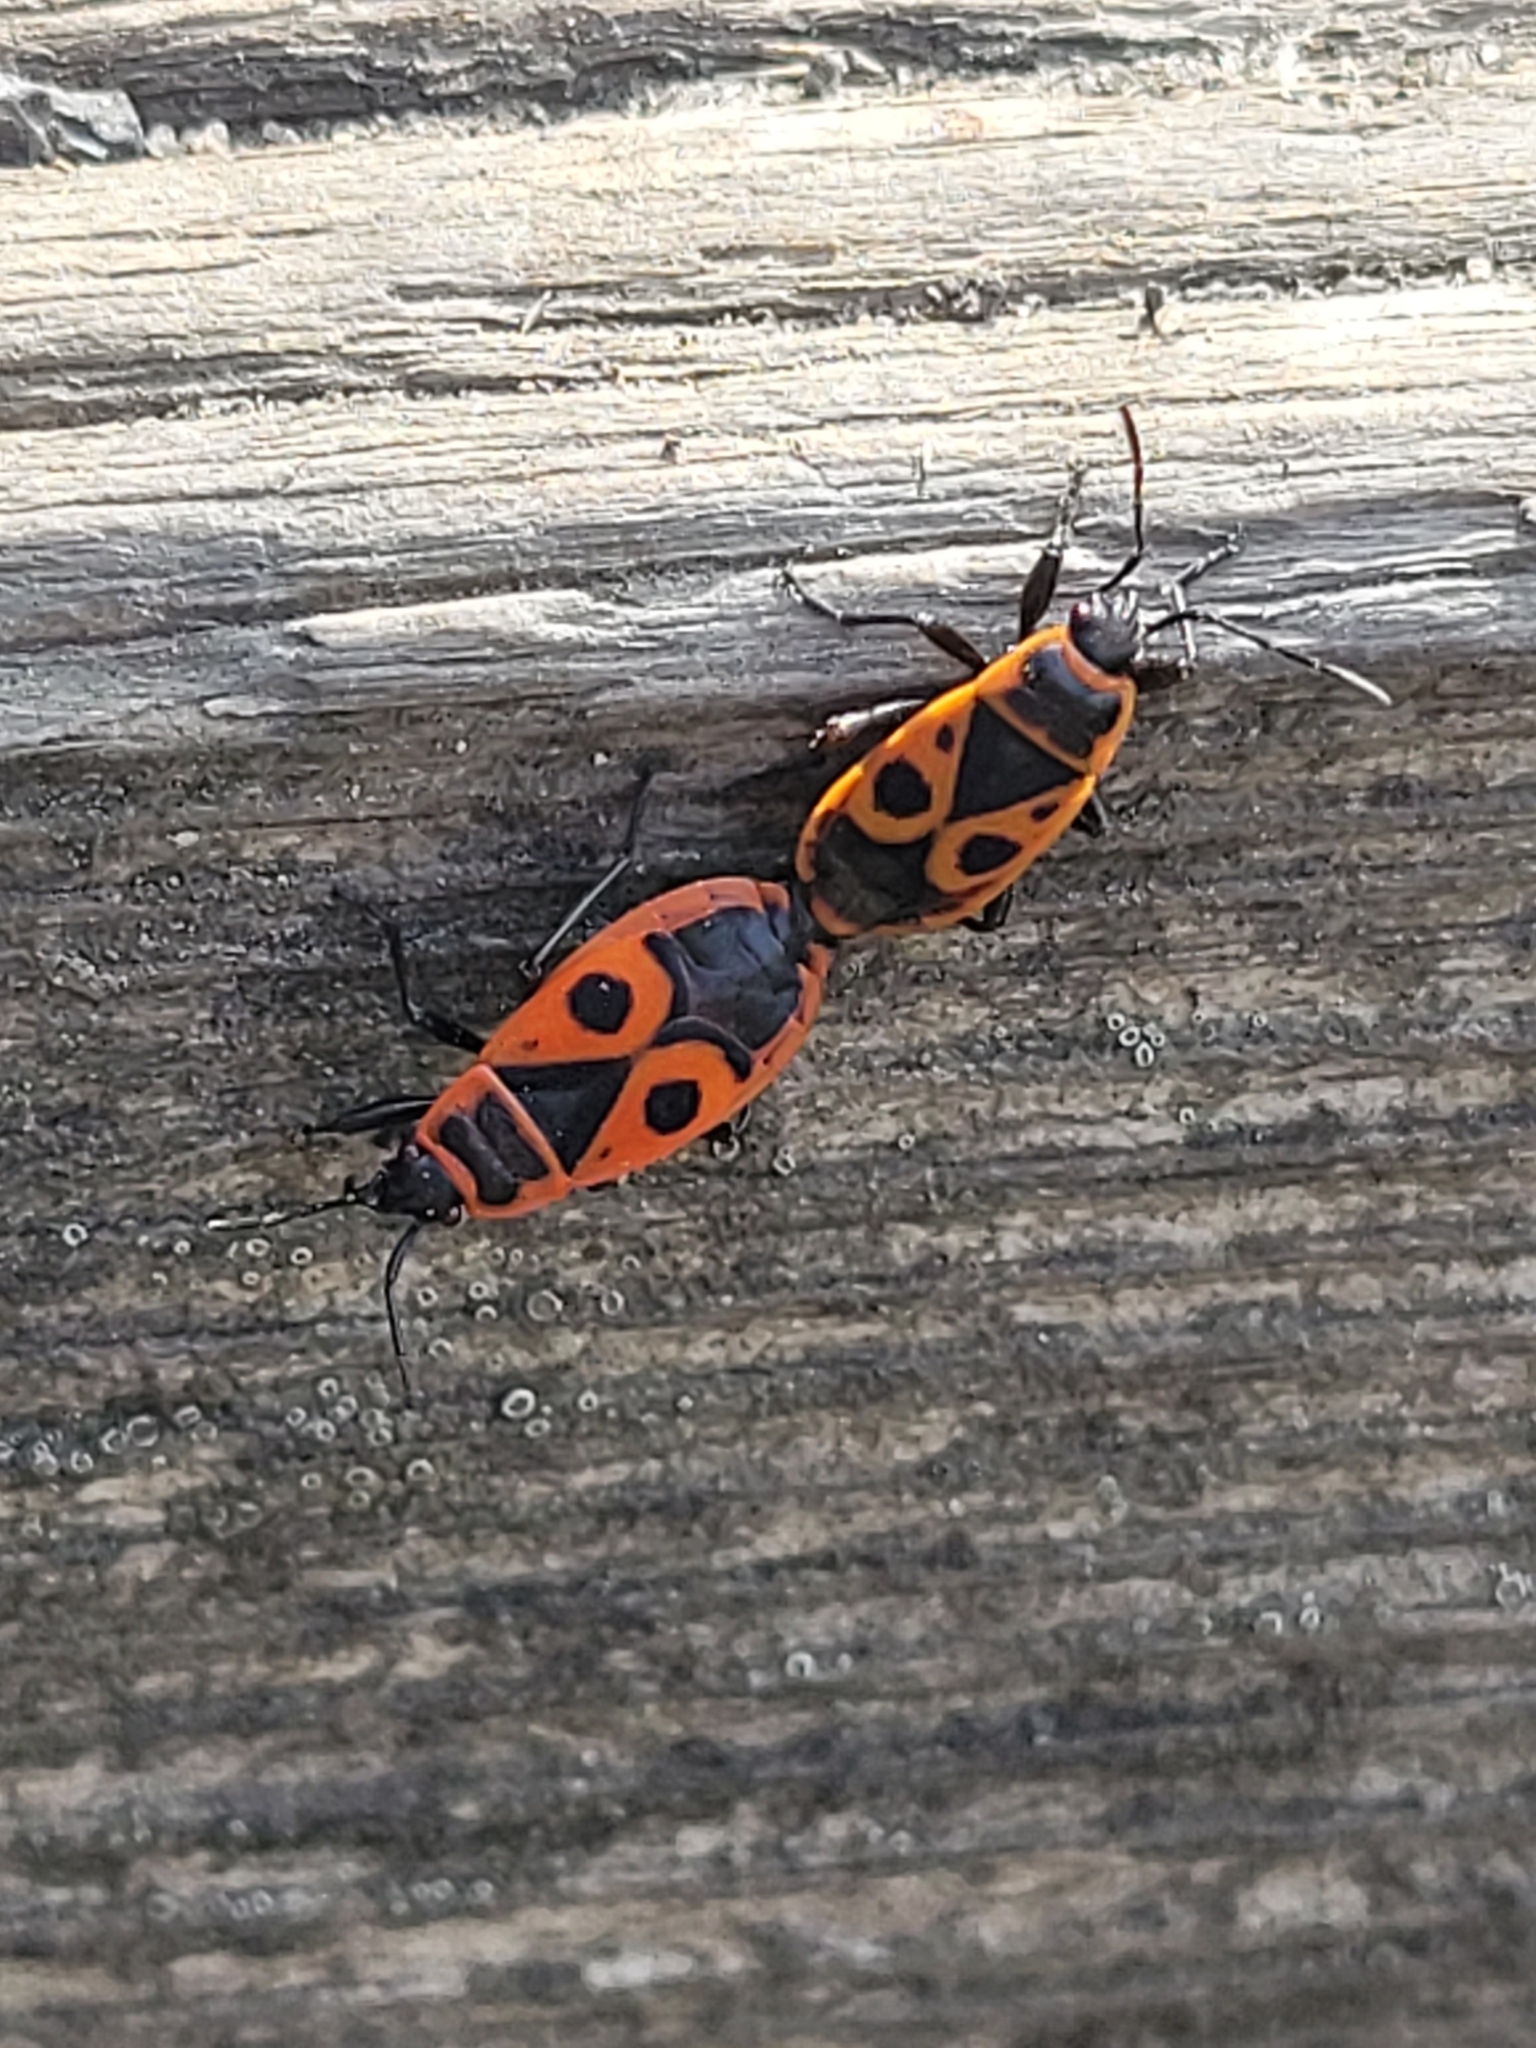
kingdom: Animalia
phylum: Arthropoda
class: Insecta
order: Hemiptera
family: Pyrrhocoridae
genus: Pyrrhocoris
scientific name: Pyrrhocoris apterus
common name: Firebug
